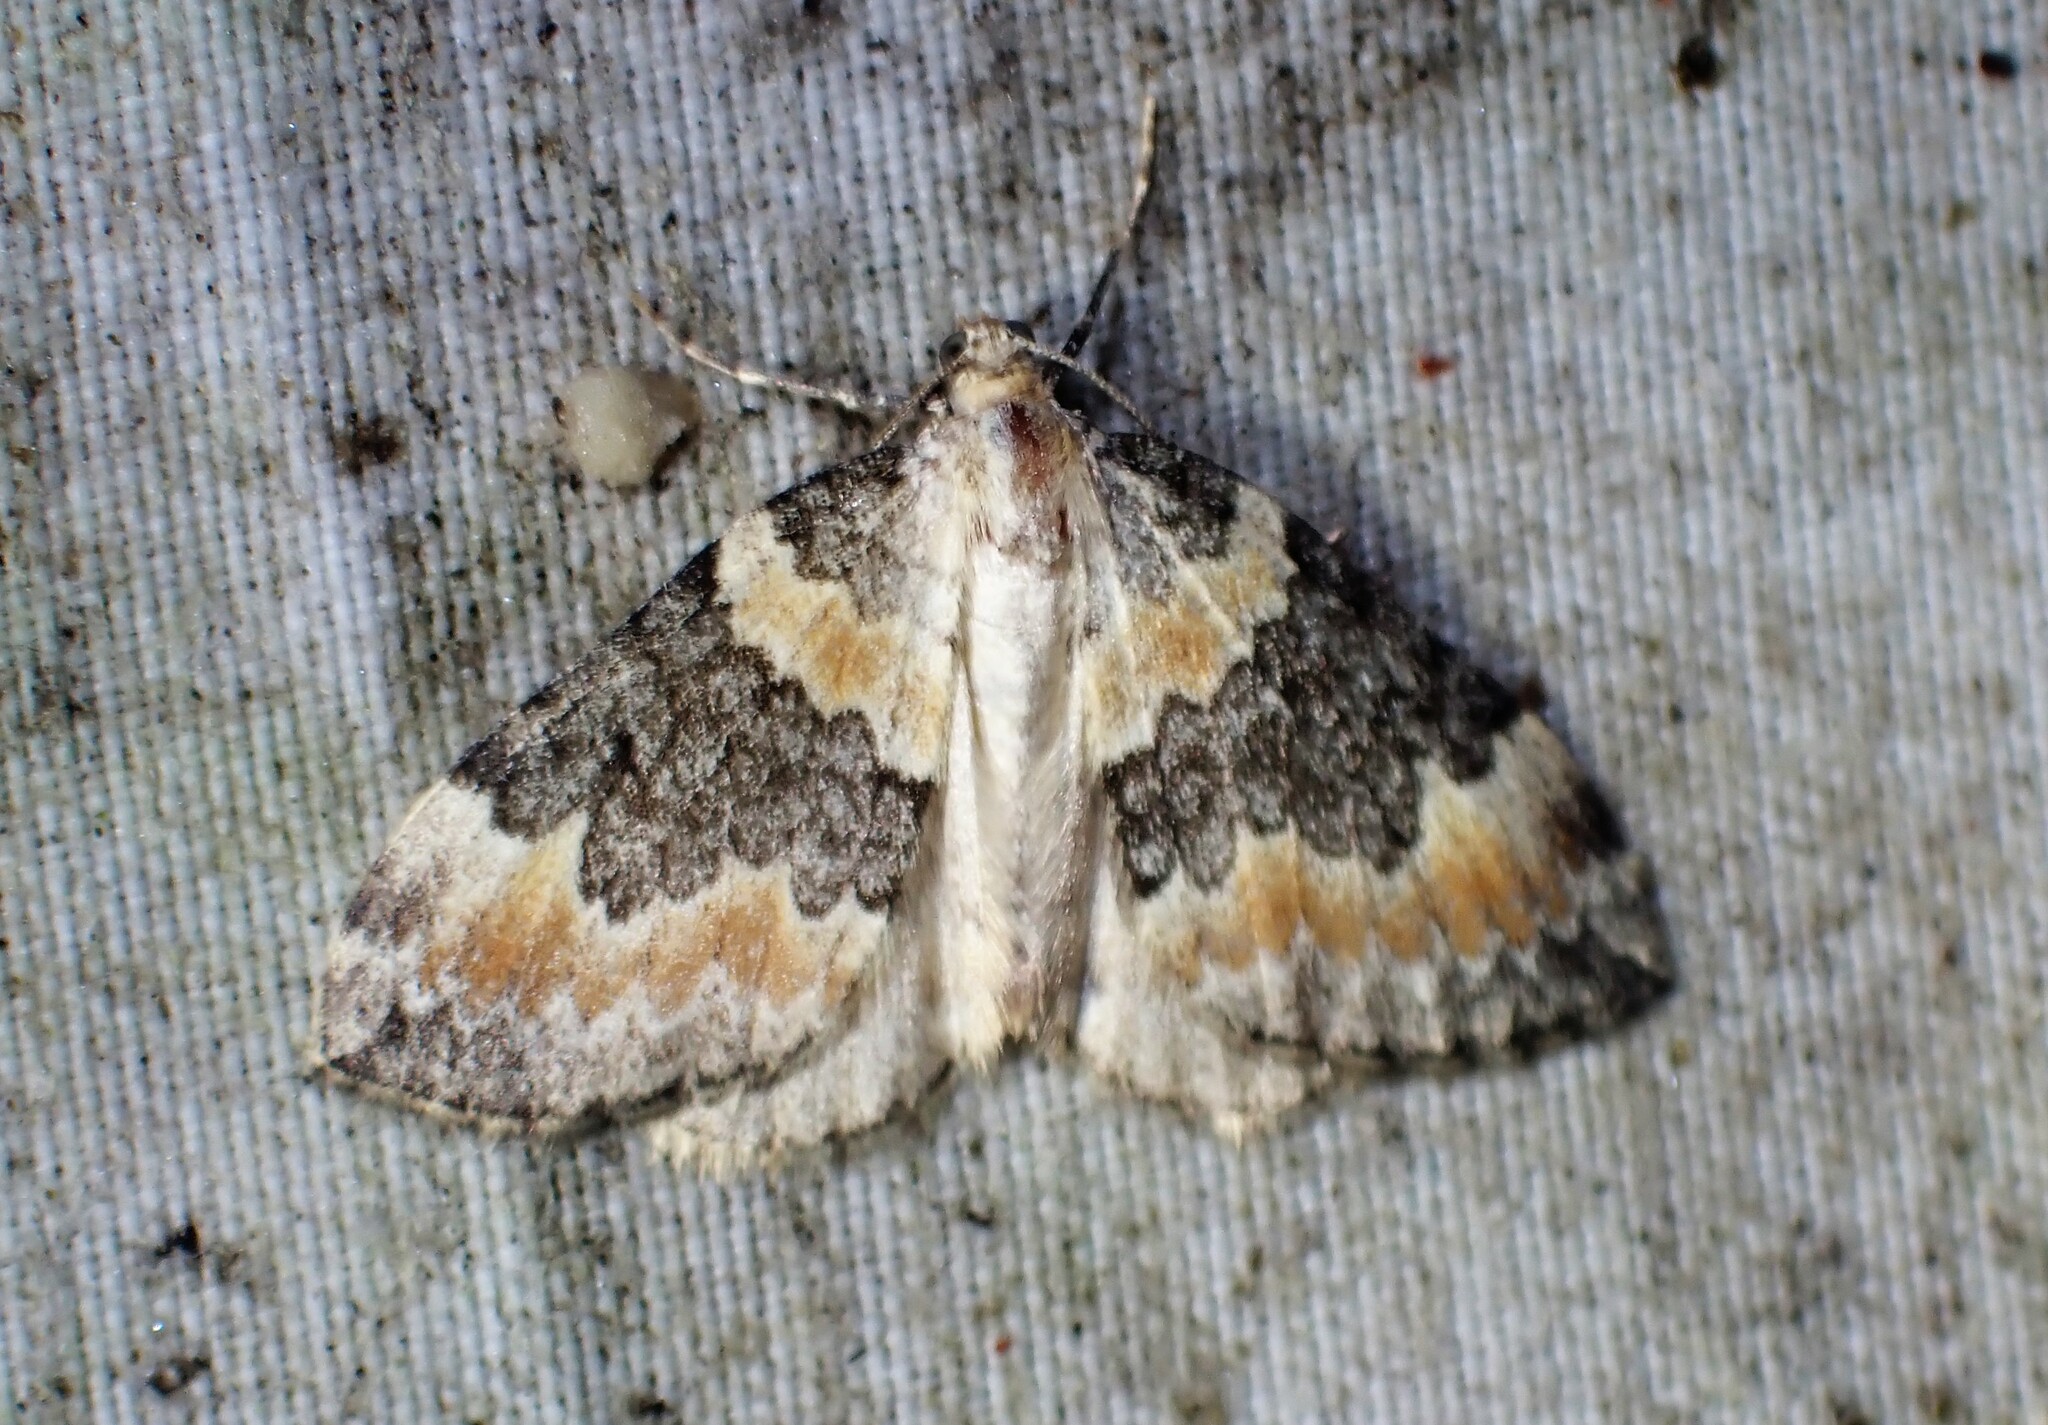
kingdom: Animalia
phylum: Arthropoda
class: Insecta
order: Lepidoptera
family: Geometridae
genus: Dysstroma
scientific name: Dysstroma brunneata
